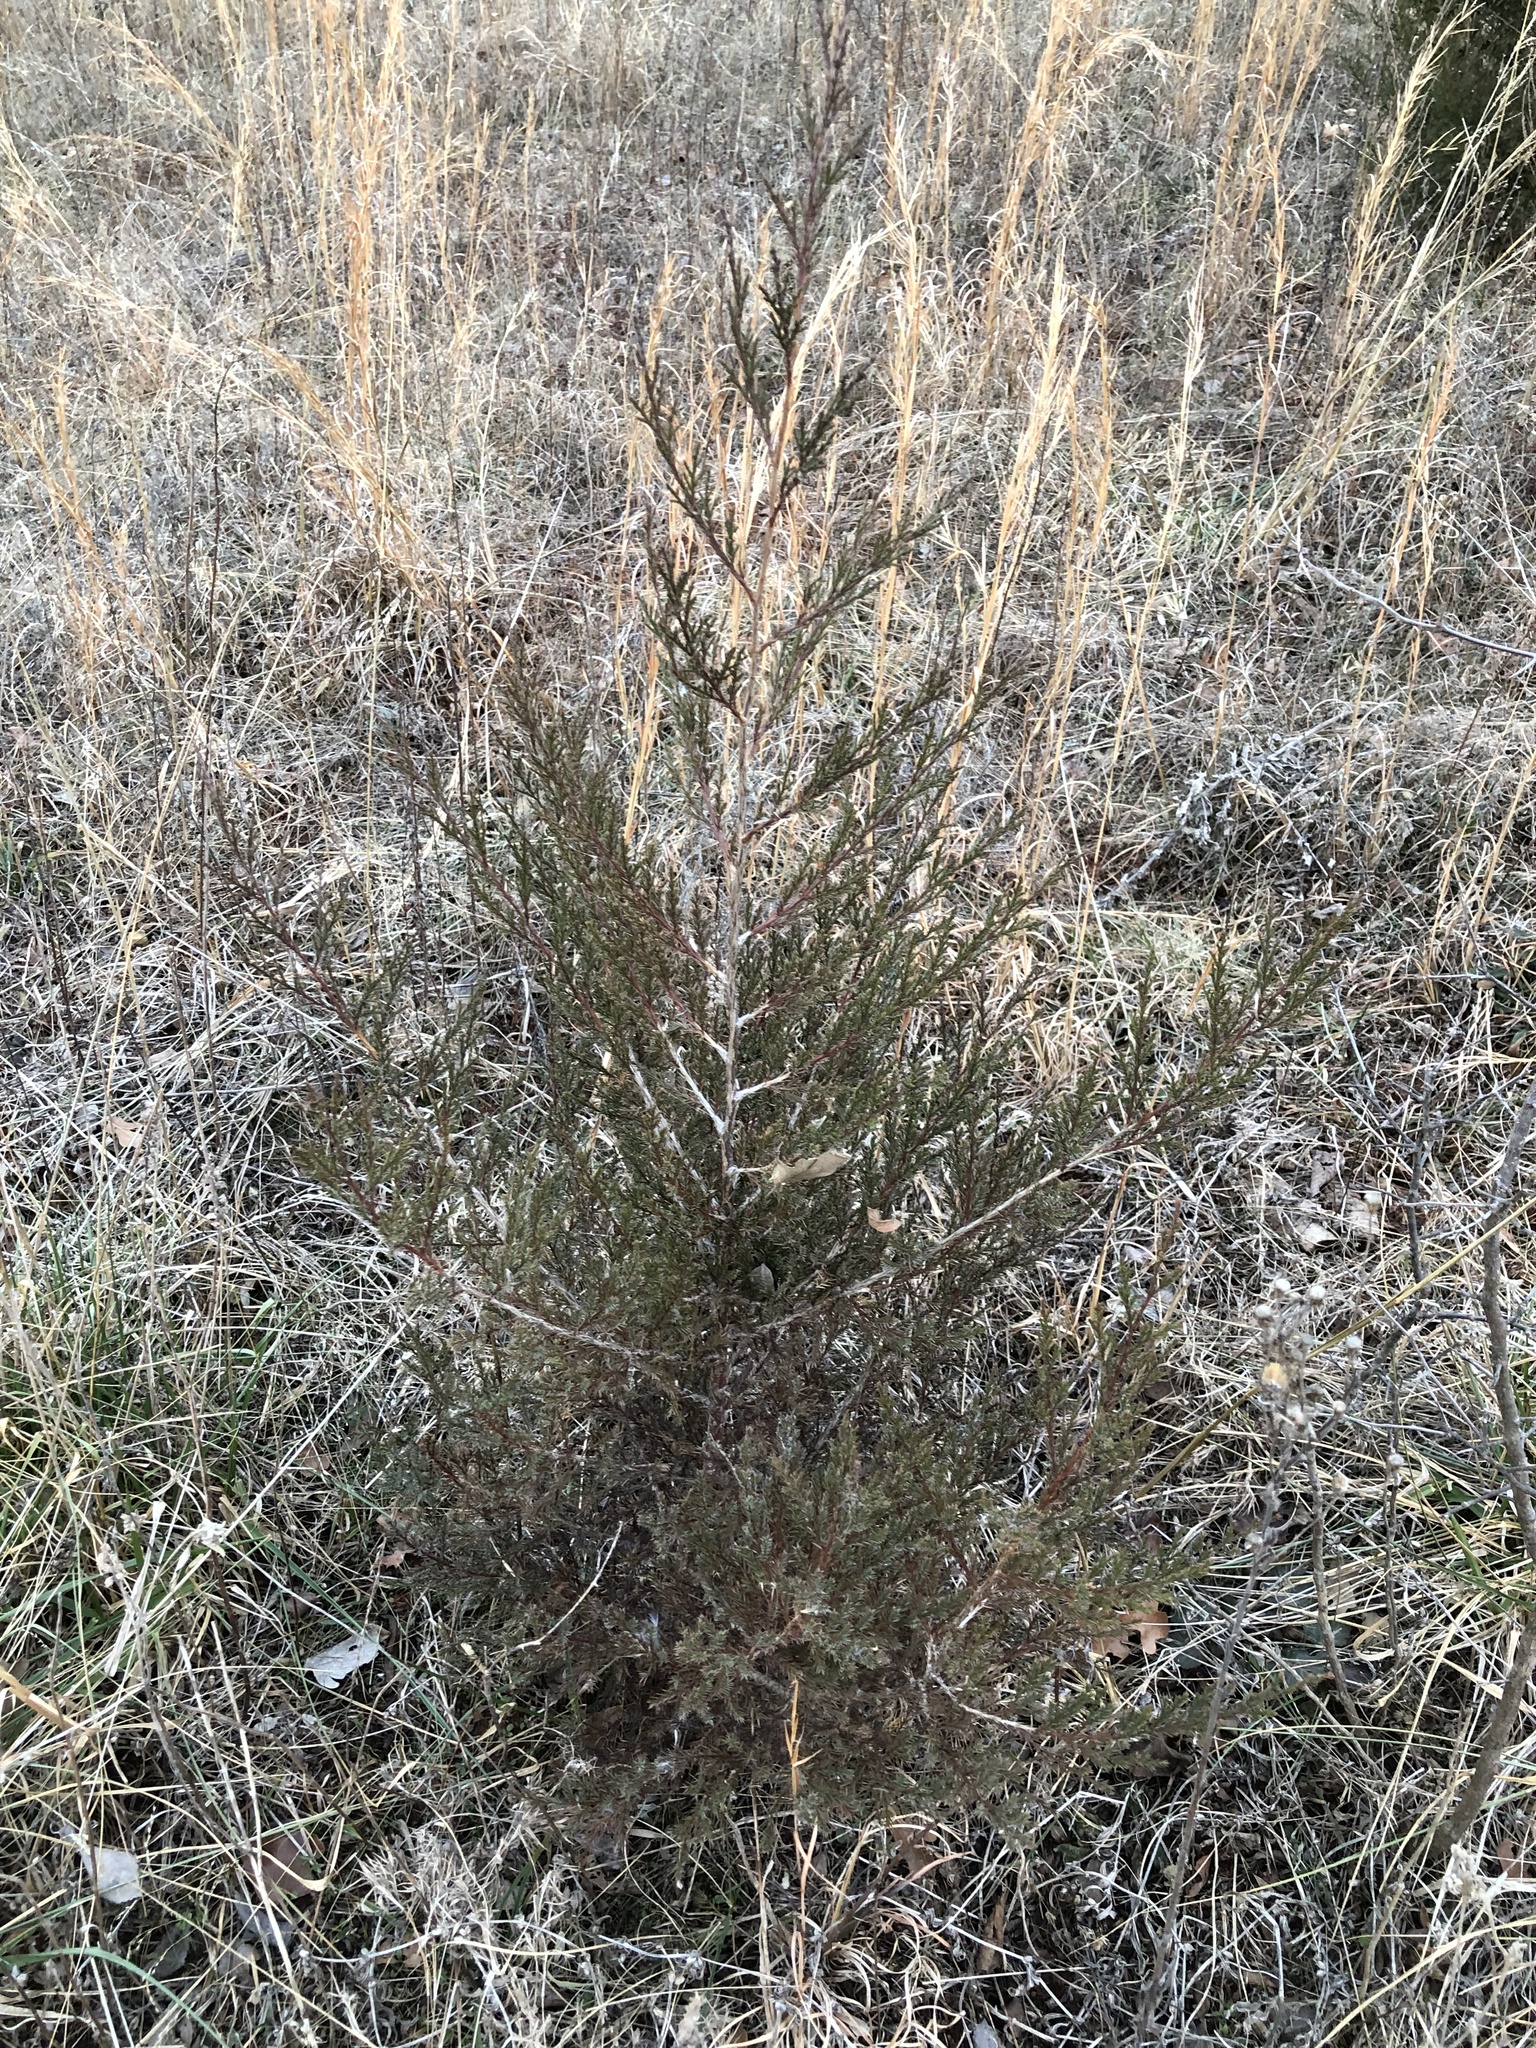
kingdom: Plantae
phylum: Tracheophyta
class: Pinopsida
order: Pinales
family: Cupressaceae
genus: Juniperus
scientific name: Juniperus virginiana
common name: Red juniper
